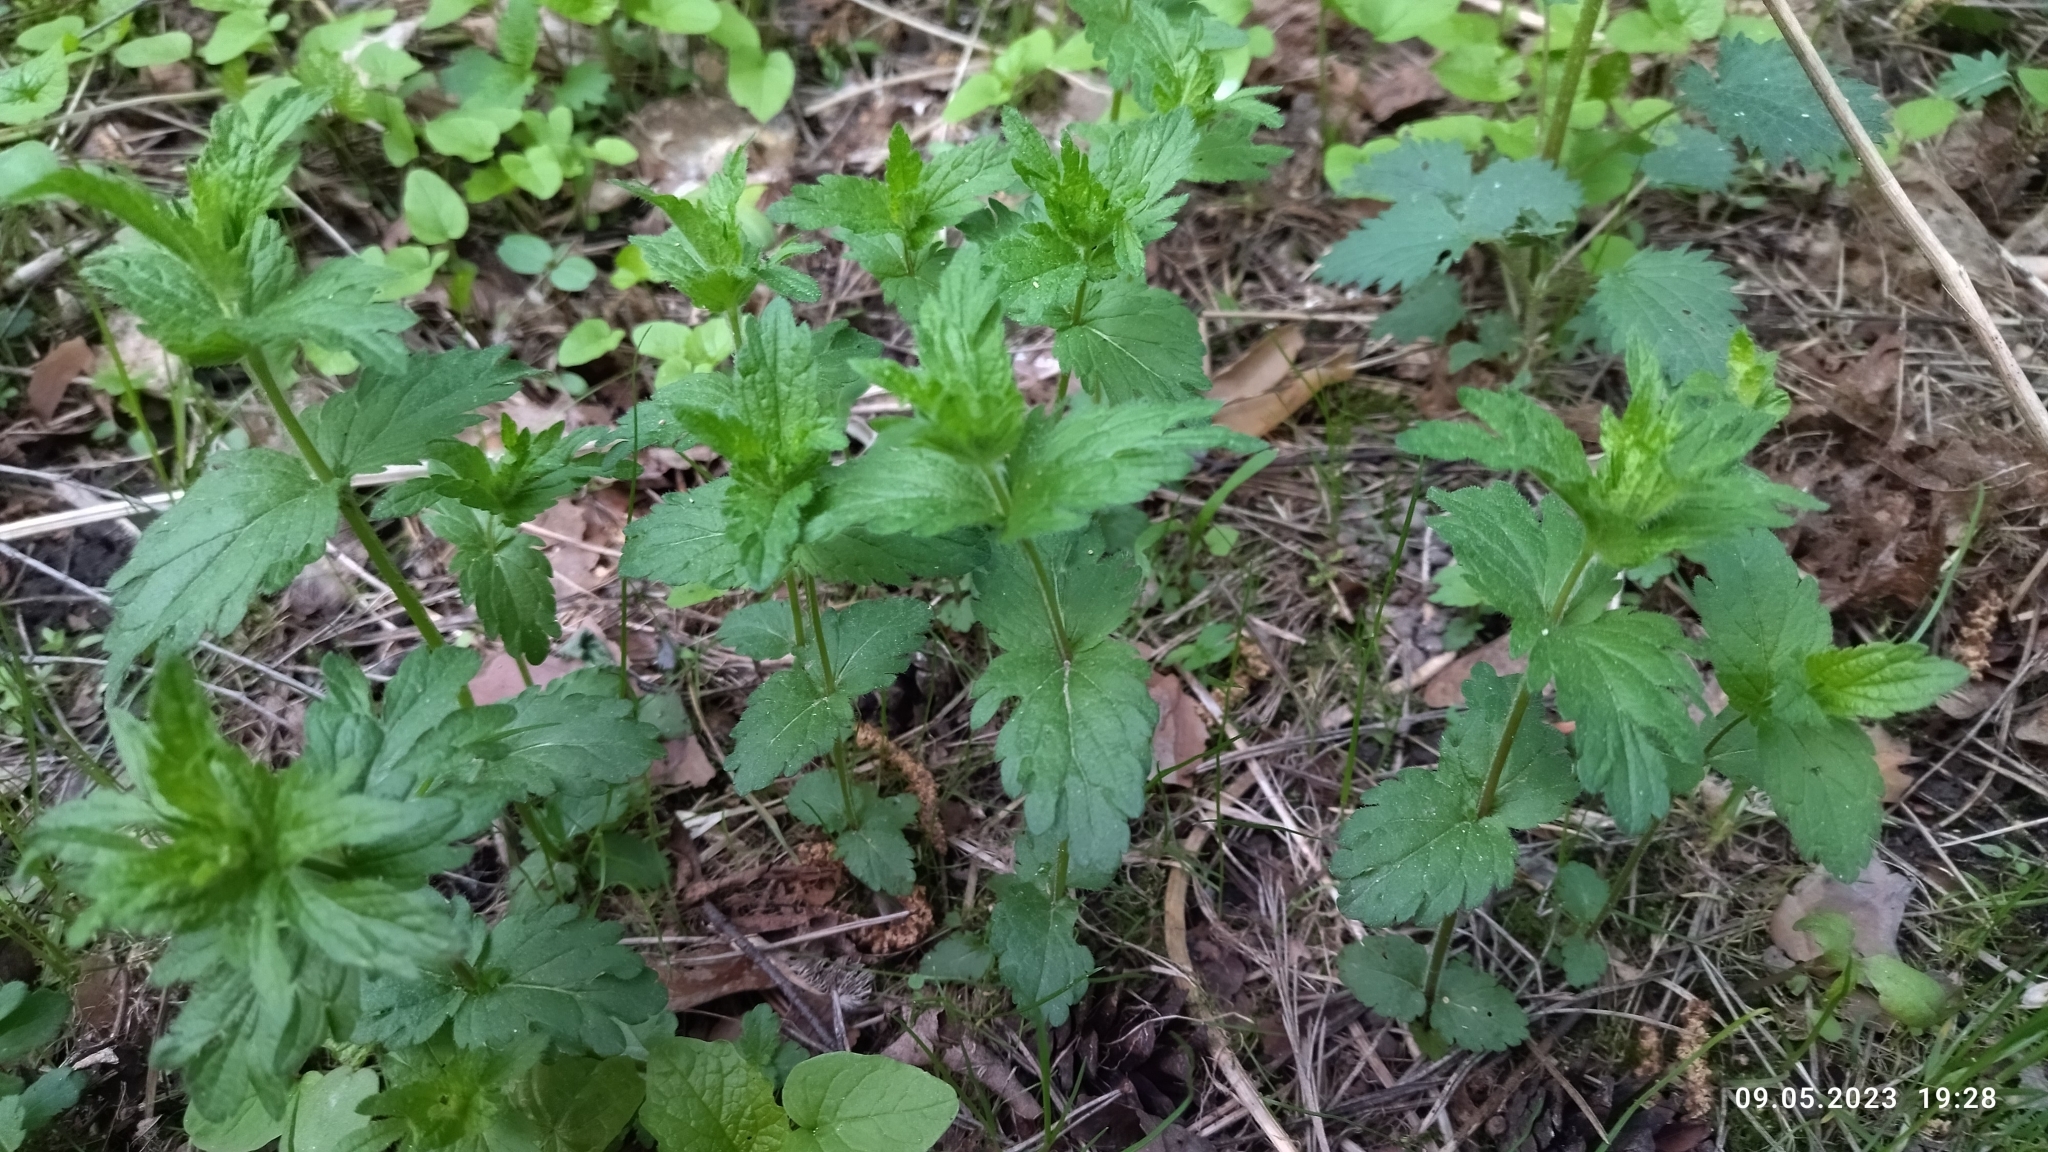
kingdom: Plantae
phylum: Tracheophyta
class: Magnoliopsida
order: Lamiales
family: Plantaginaceae
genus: Veronica
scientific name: Veronica teucrium
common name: Large speedwell
